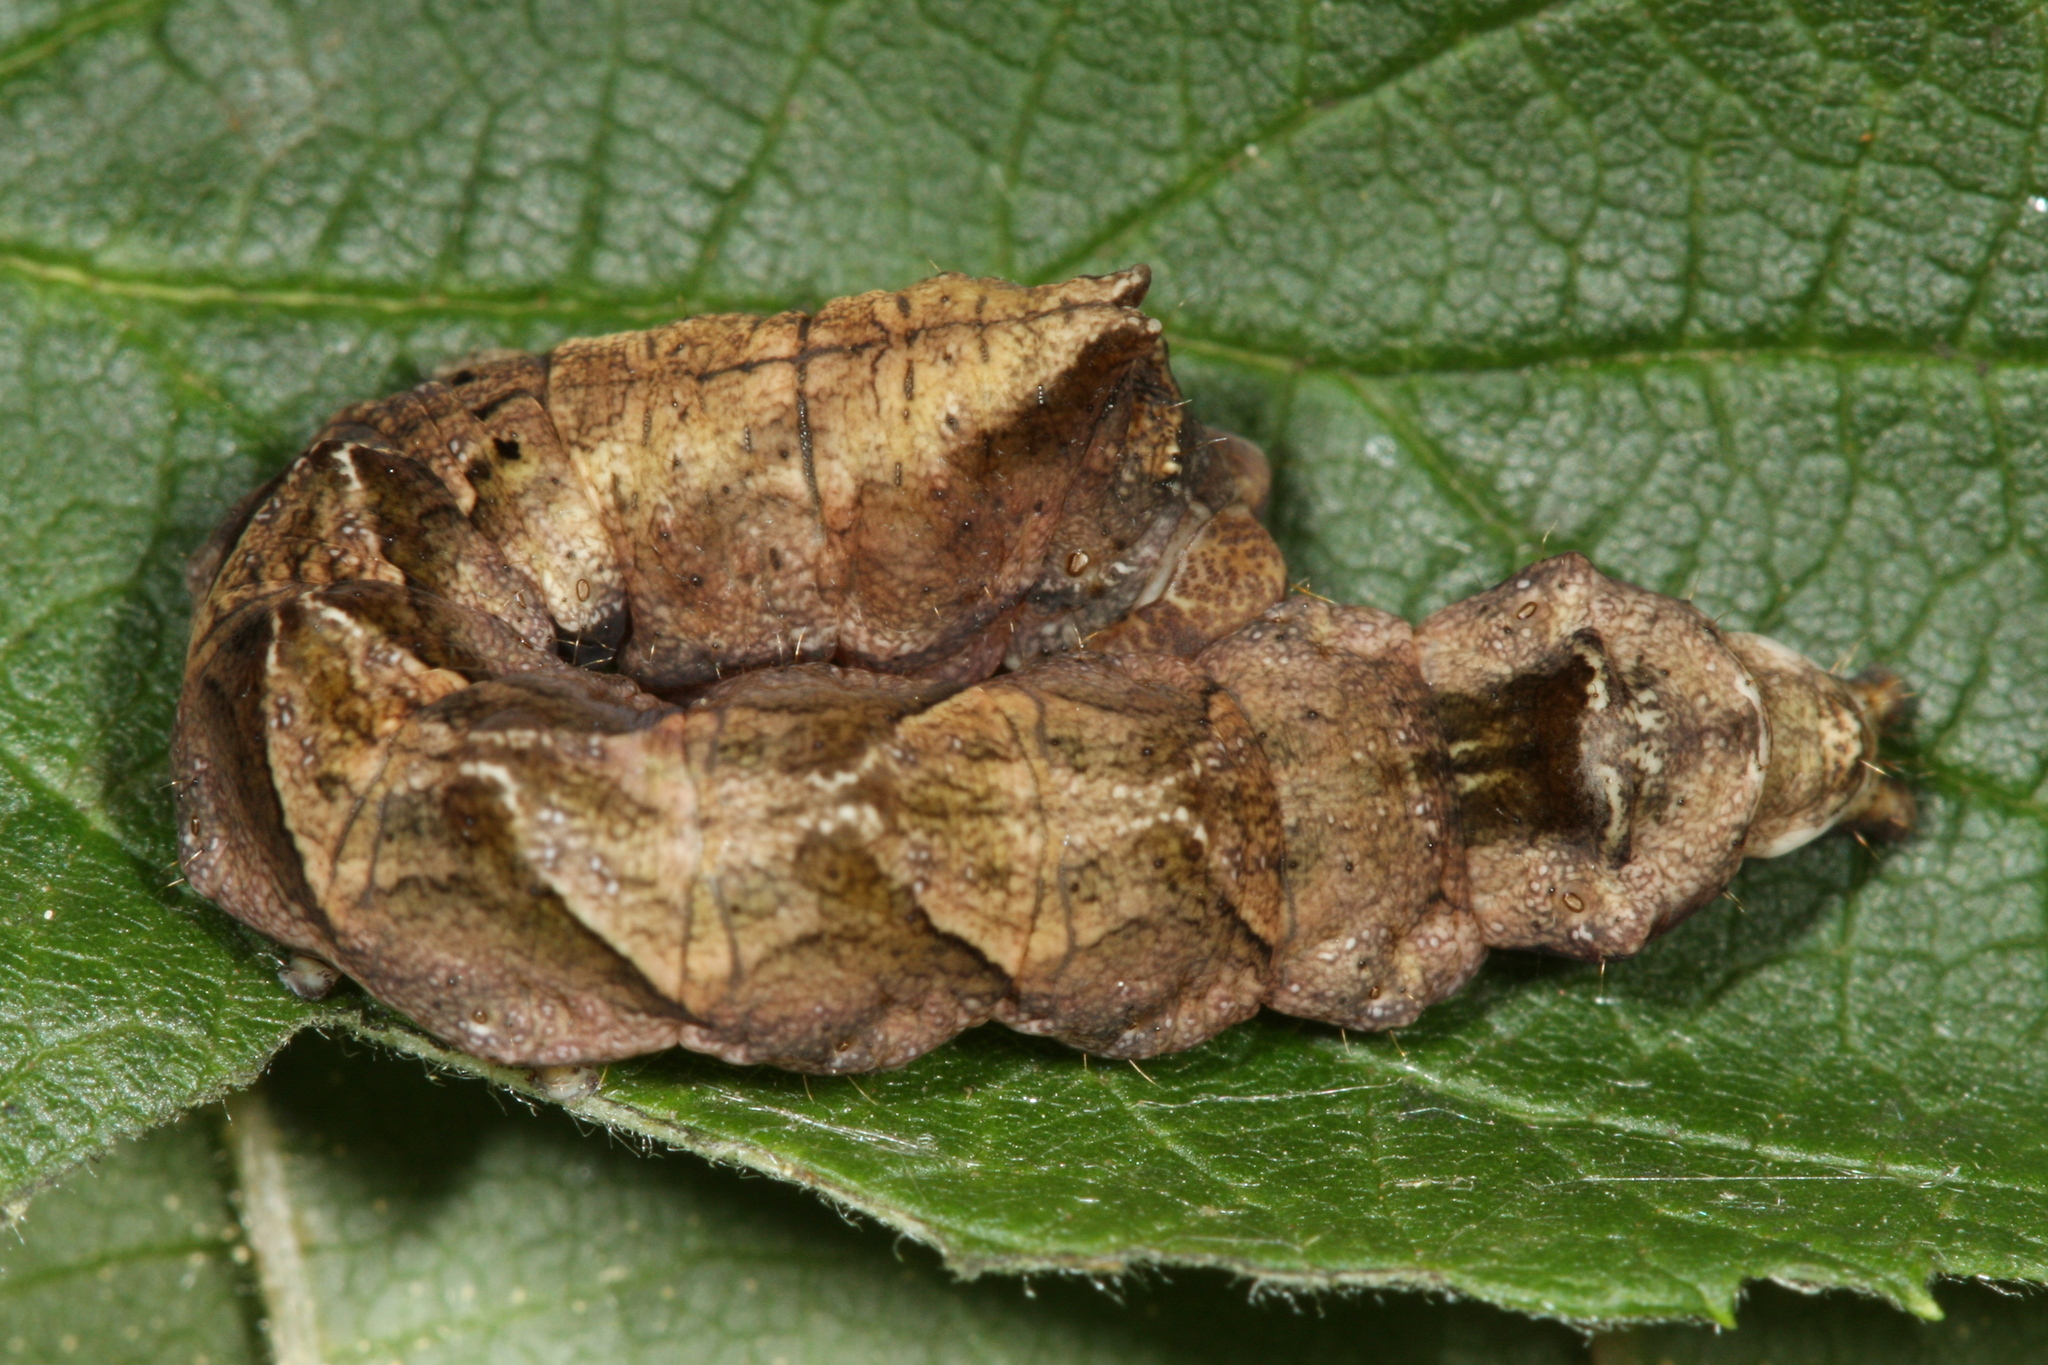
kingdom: Animalia
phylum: Arthropoda
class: Insecta
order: Lepidoptera
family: Drepanidae
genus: Thyatira
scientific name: Thyatira batis
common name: Peach blossom
